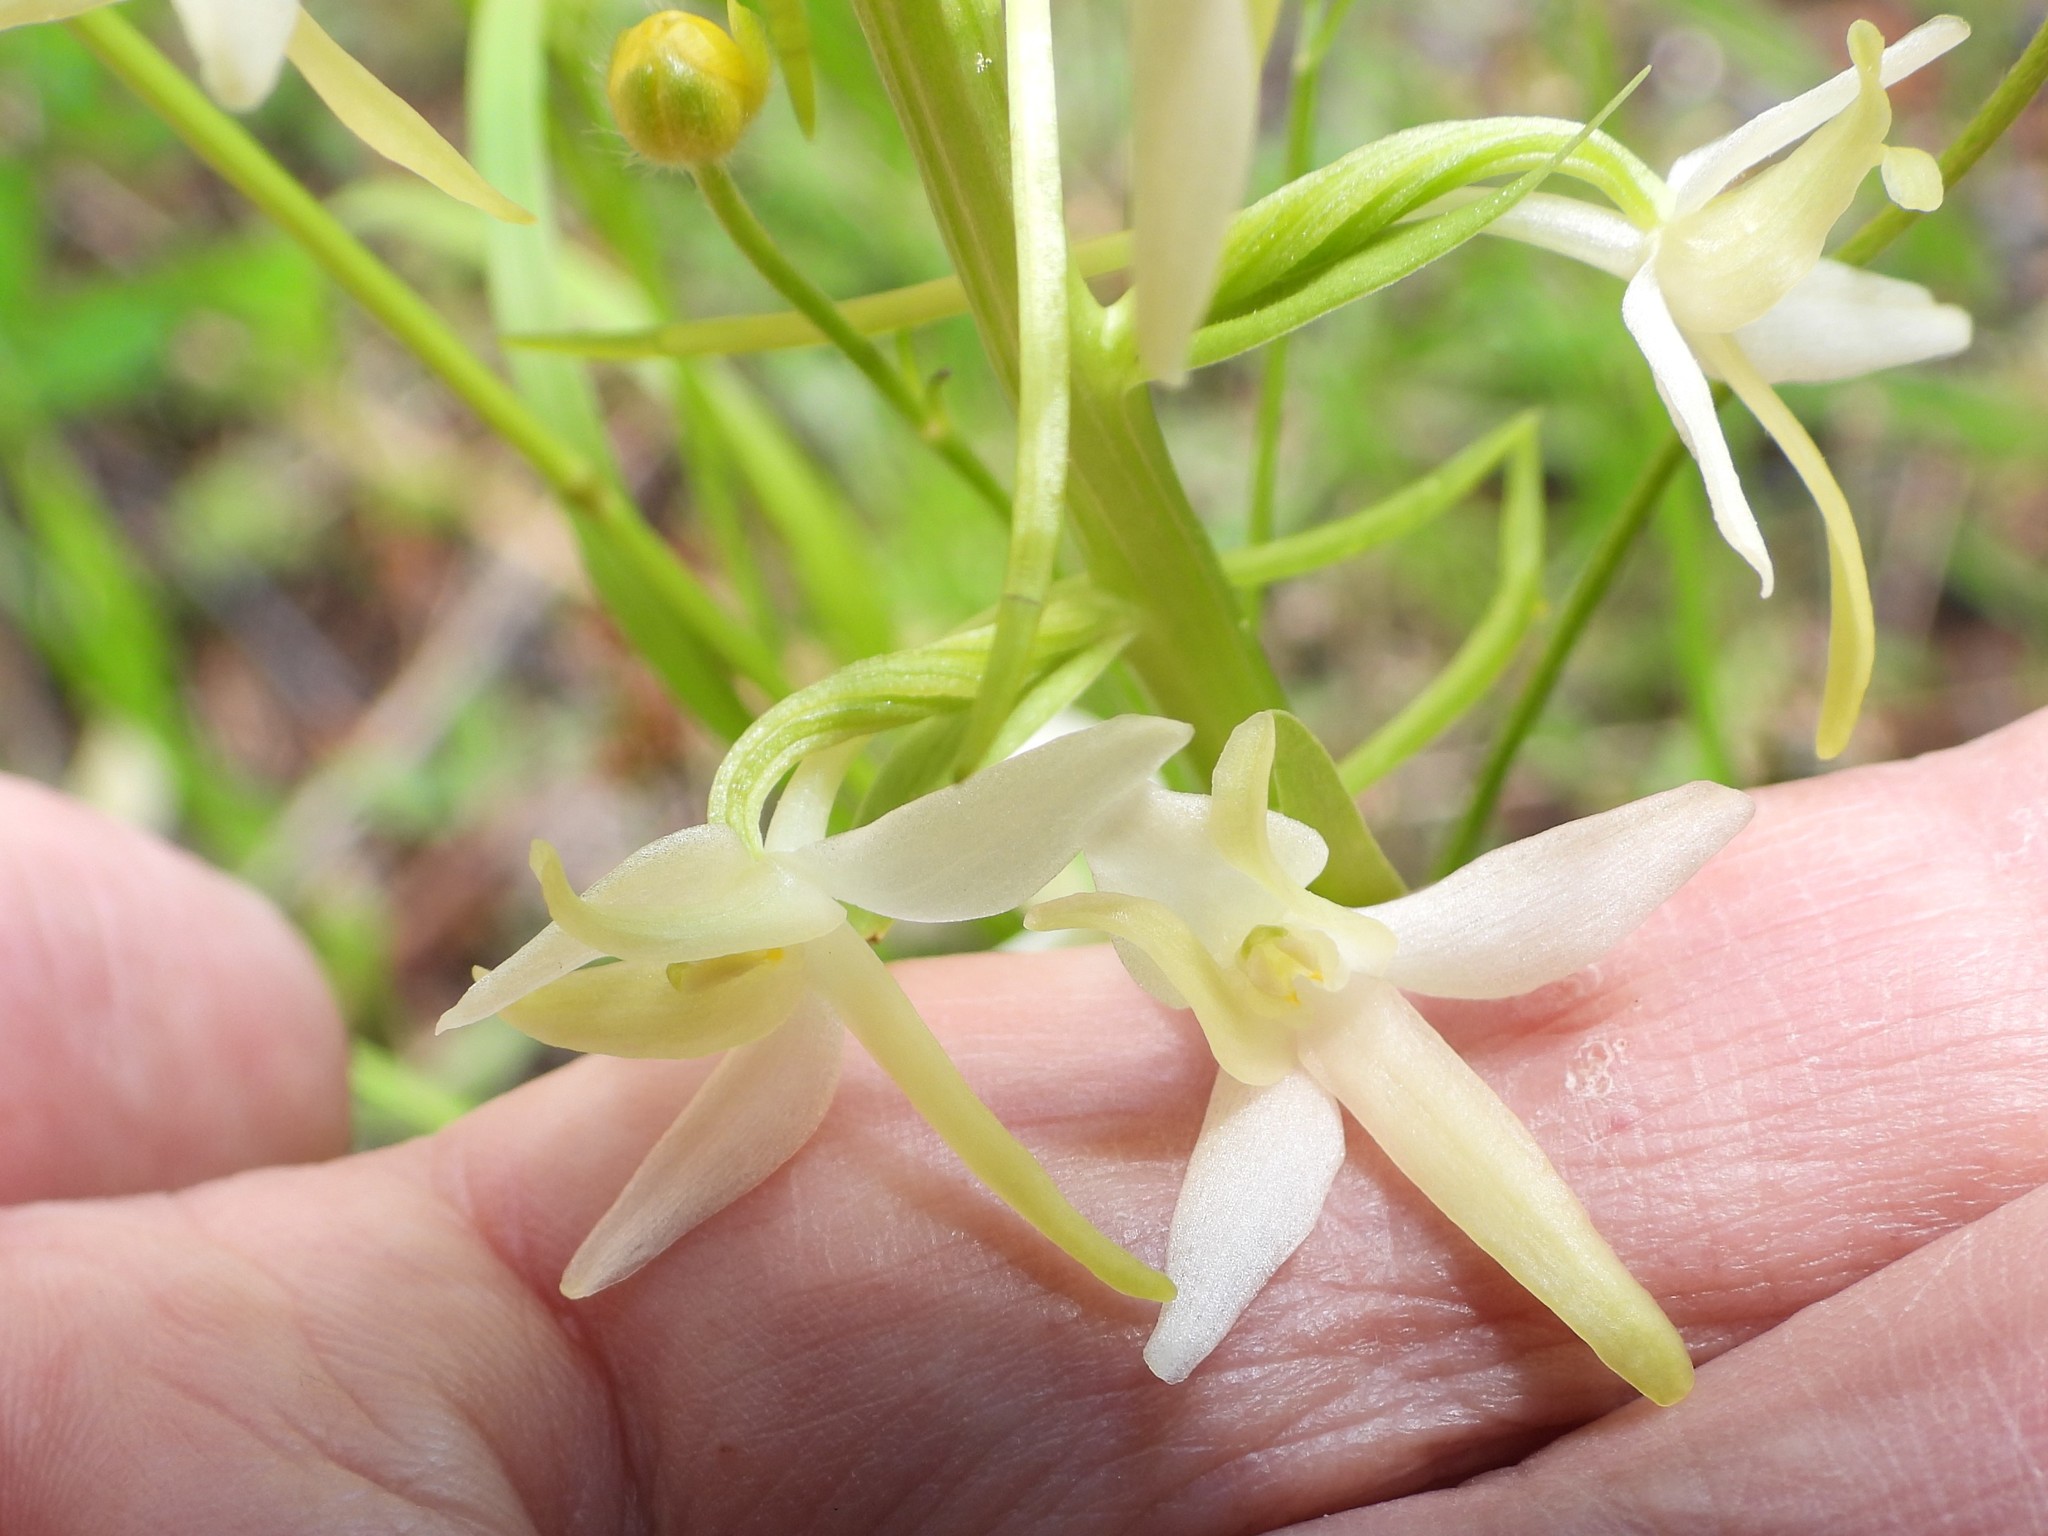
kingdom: Plantae
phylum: Tracheophyta
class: Liliopsida
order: Asparagales
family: Orchidaceae
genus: Platanthera
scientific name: Platanthera bifolia
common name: Lesser butterfly-orchid
